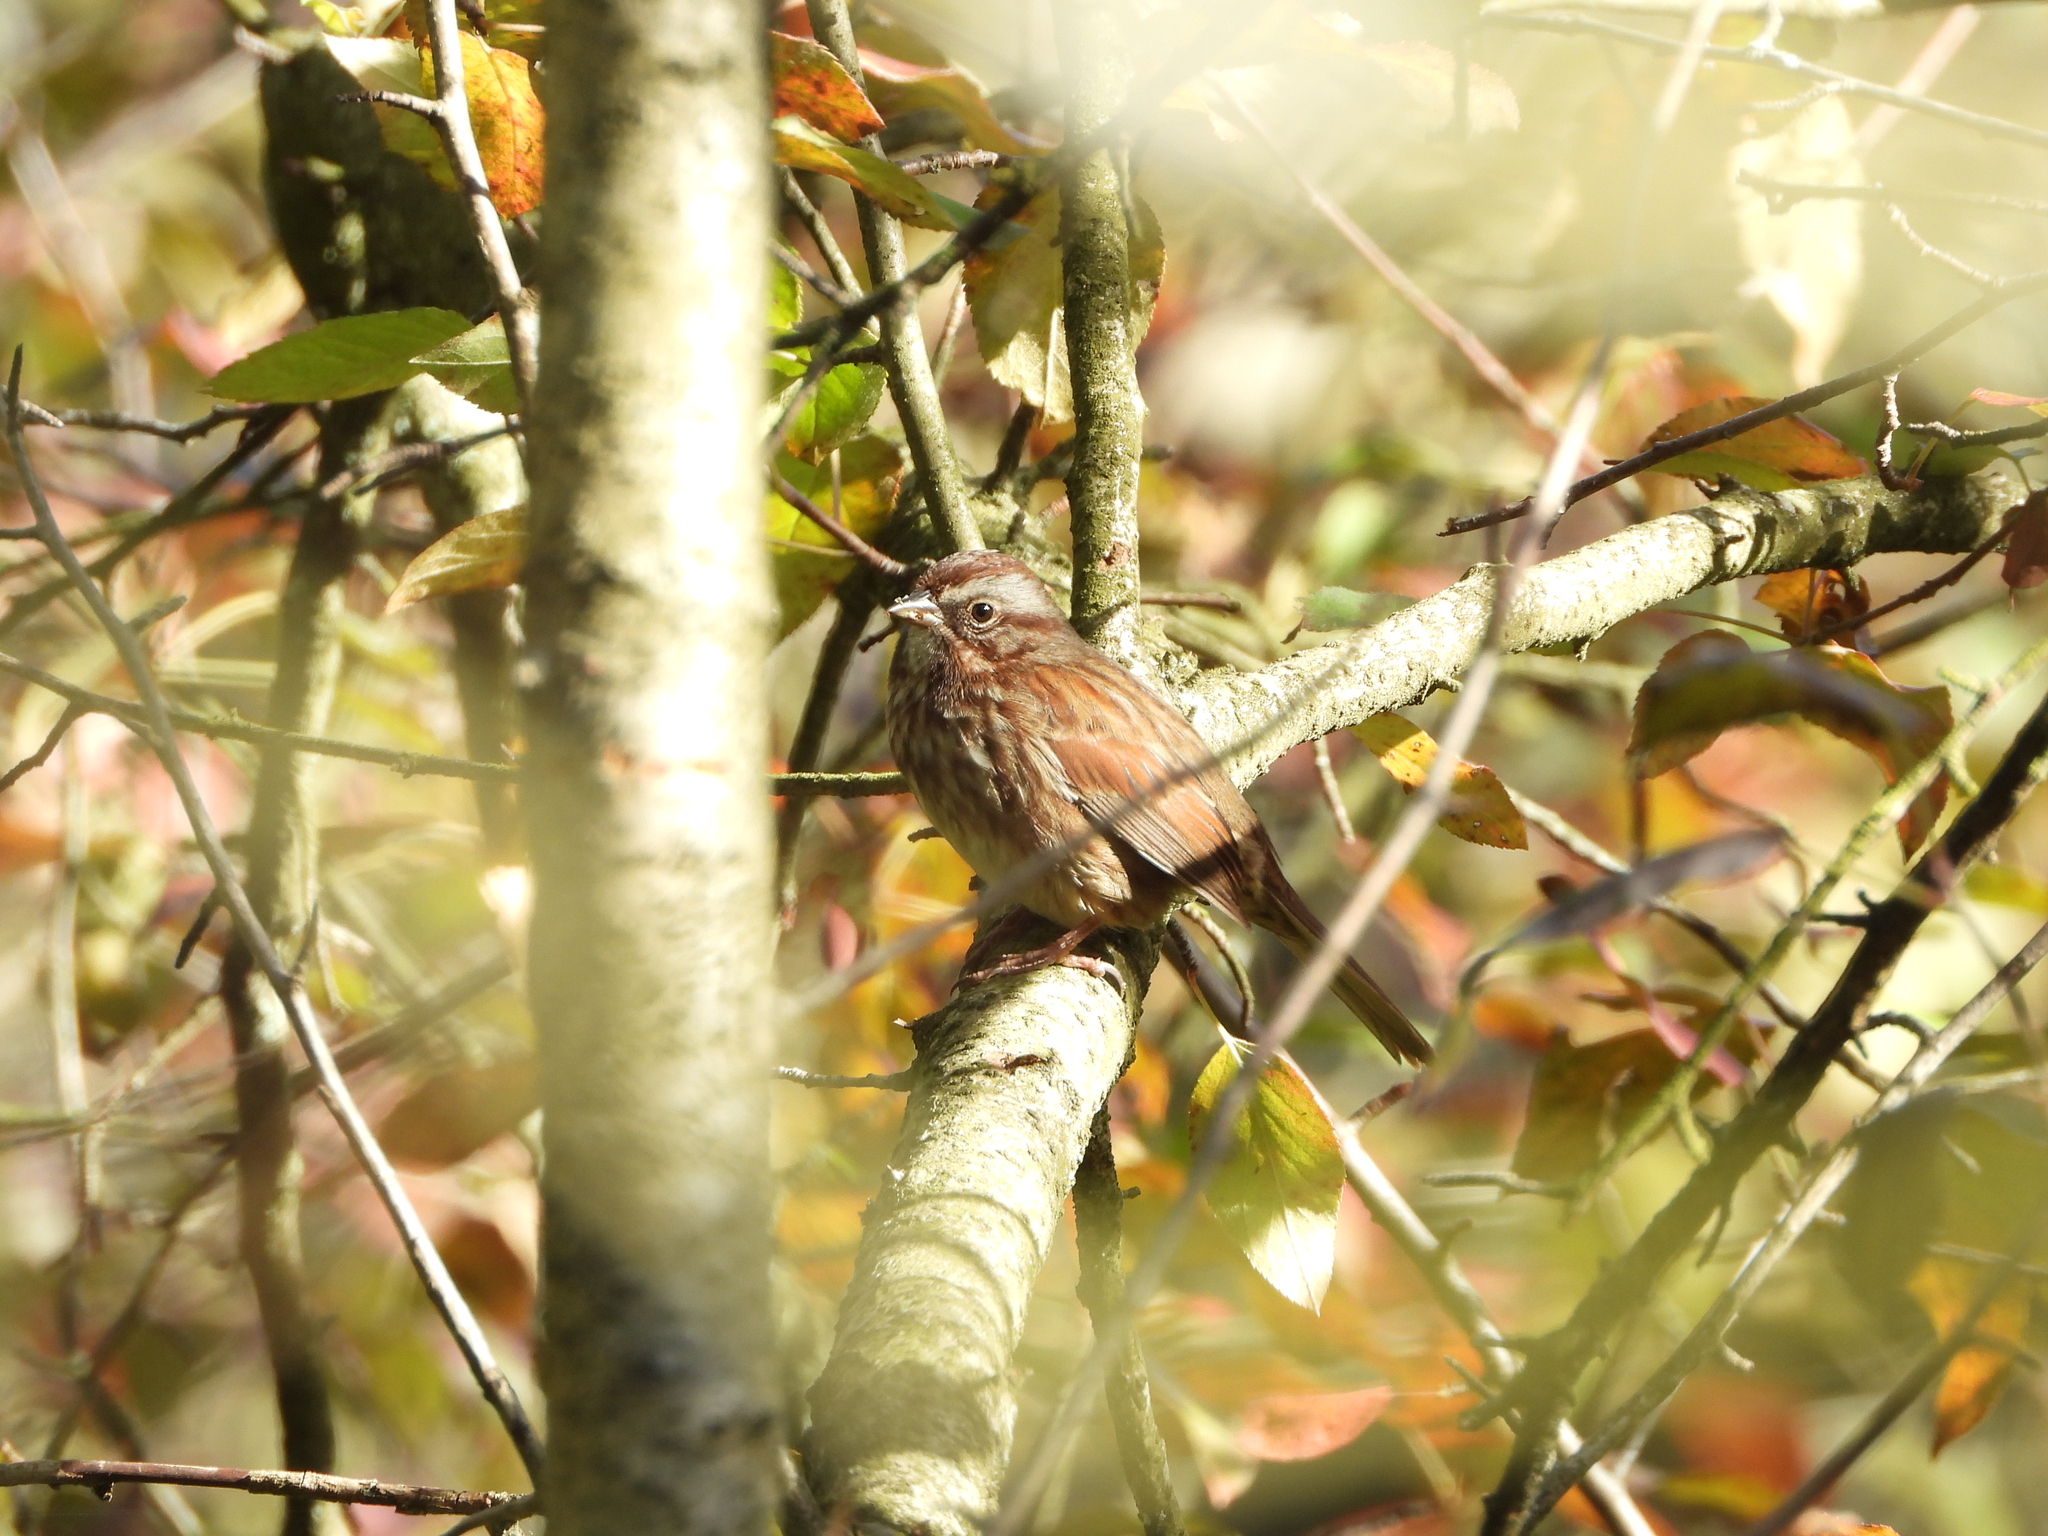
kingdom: Animalia
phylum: Chordata
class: Aves
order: Passeriformes
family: Passerellidae
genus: Melospiza
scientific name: Melospiza melodia
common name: Song sparrow
